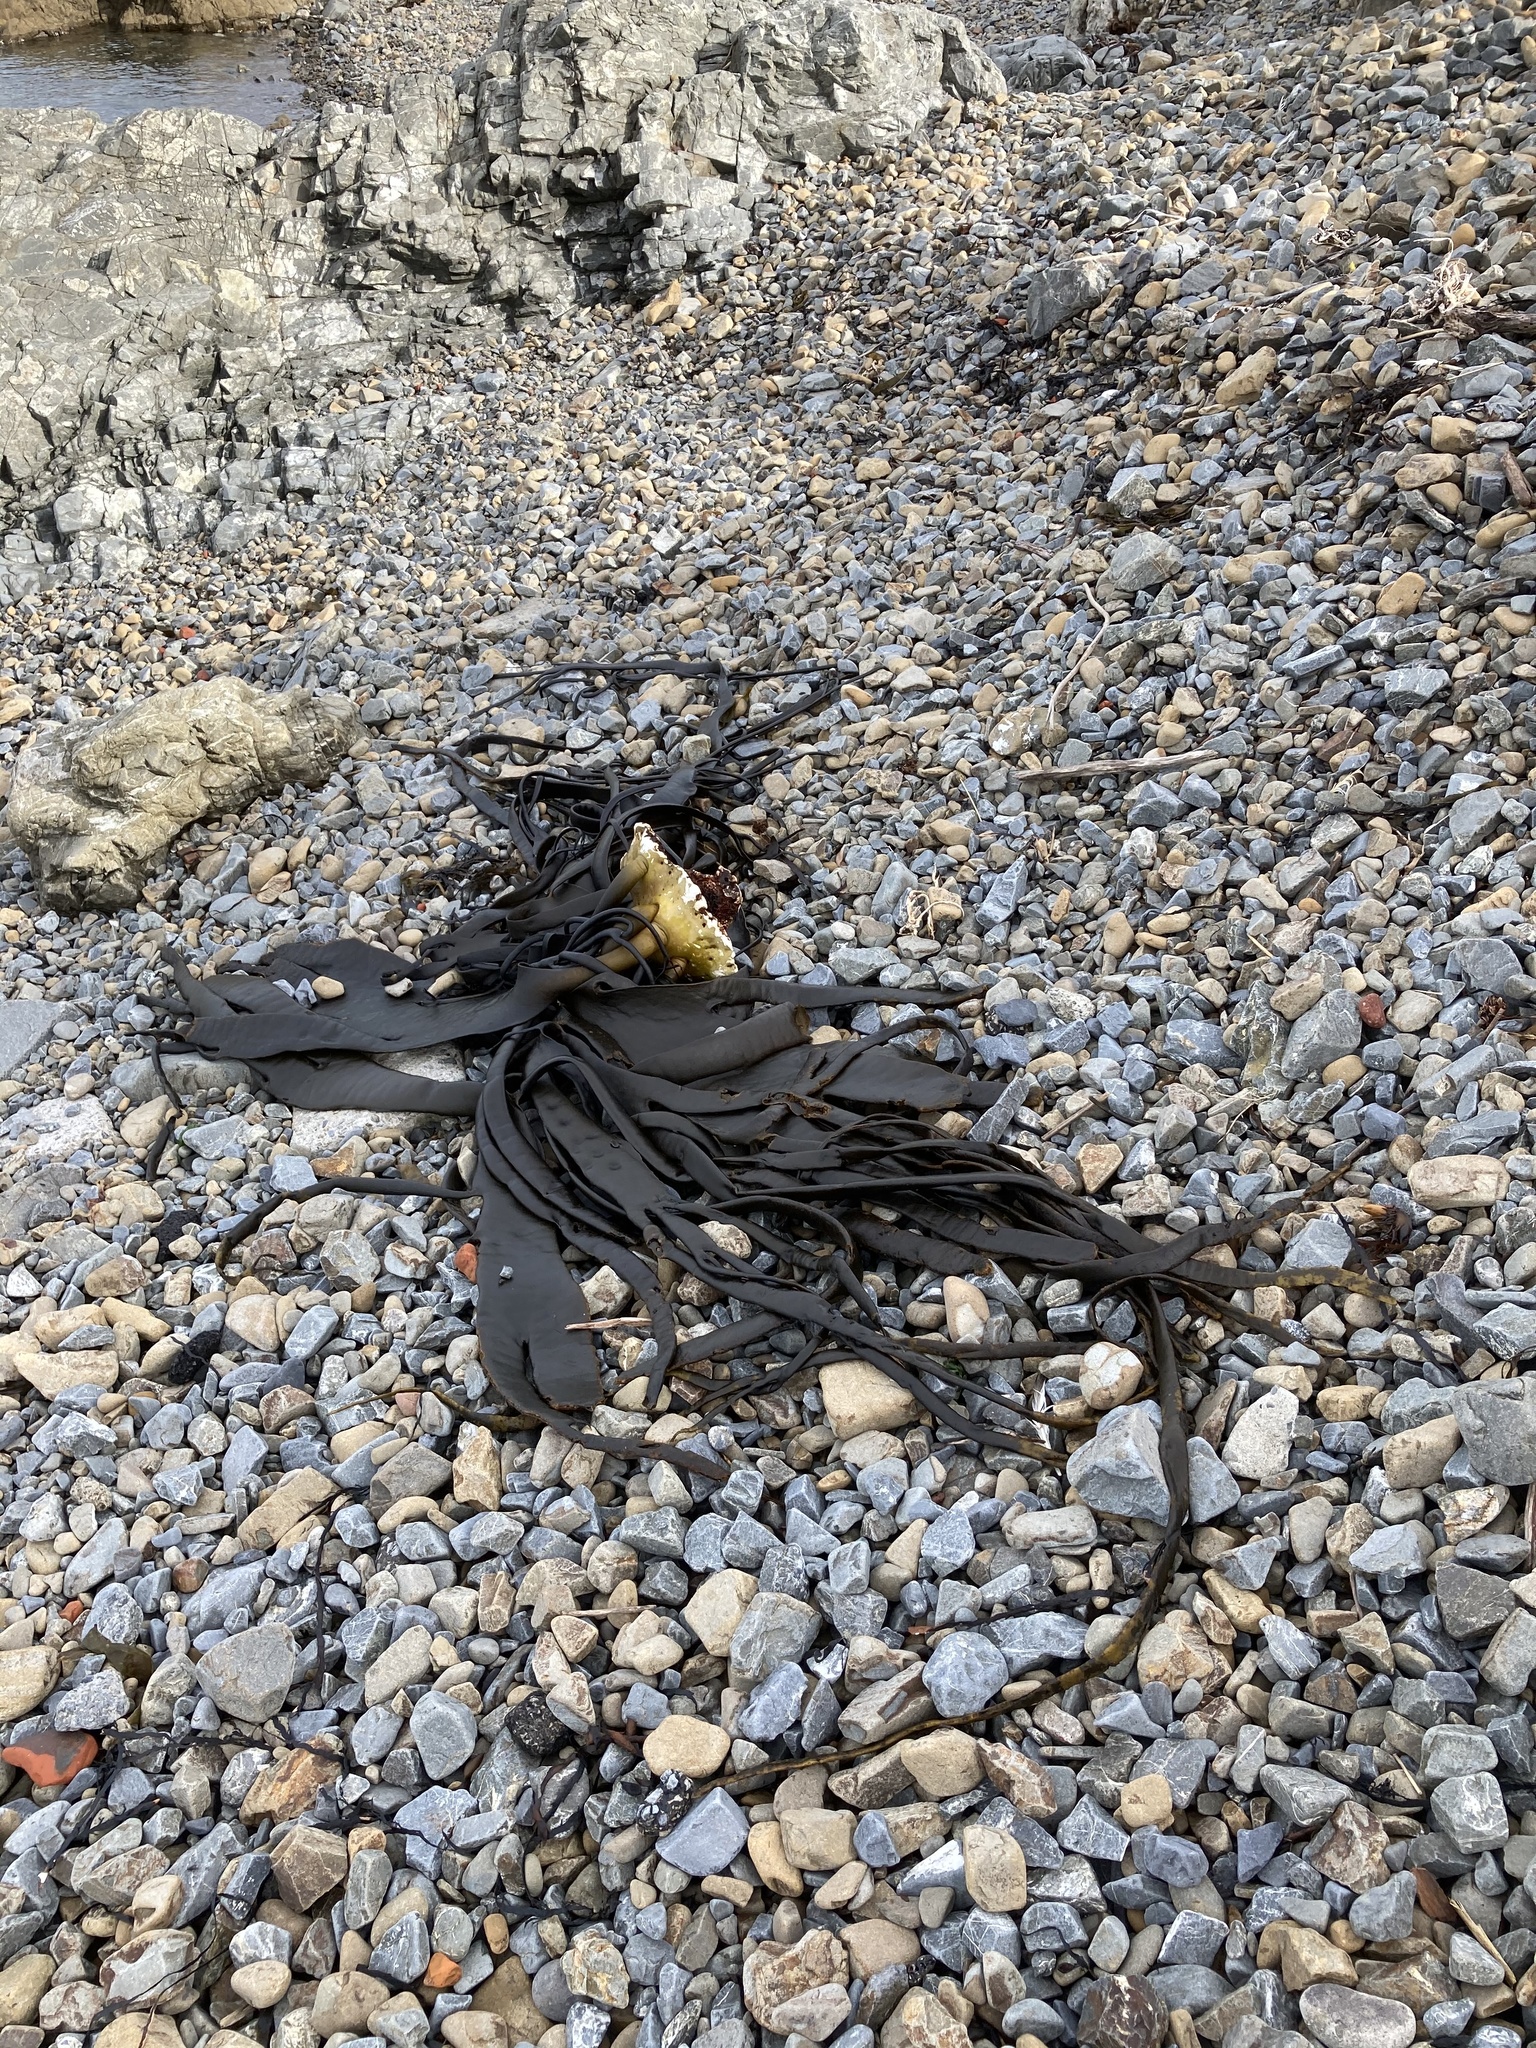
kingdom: Chromista
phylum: Ochrophyta
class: Phaeophyceae
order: Fucales
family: Durvillaeaceae
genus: Durvillaea
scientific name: Durvillaea antarctica
